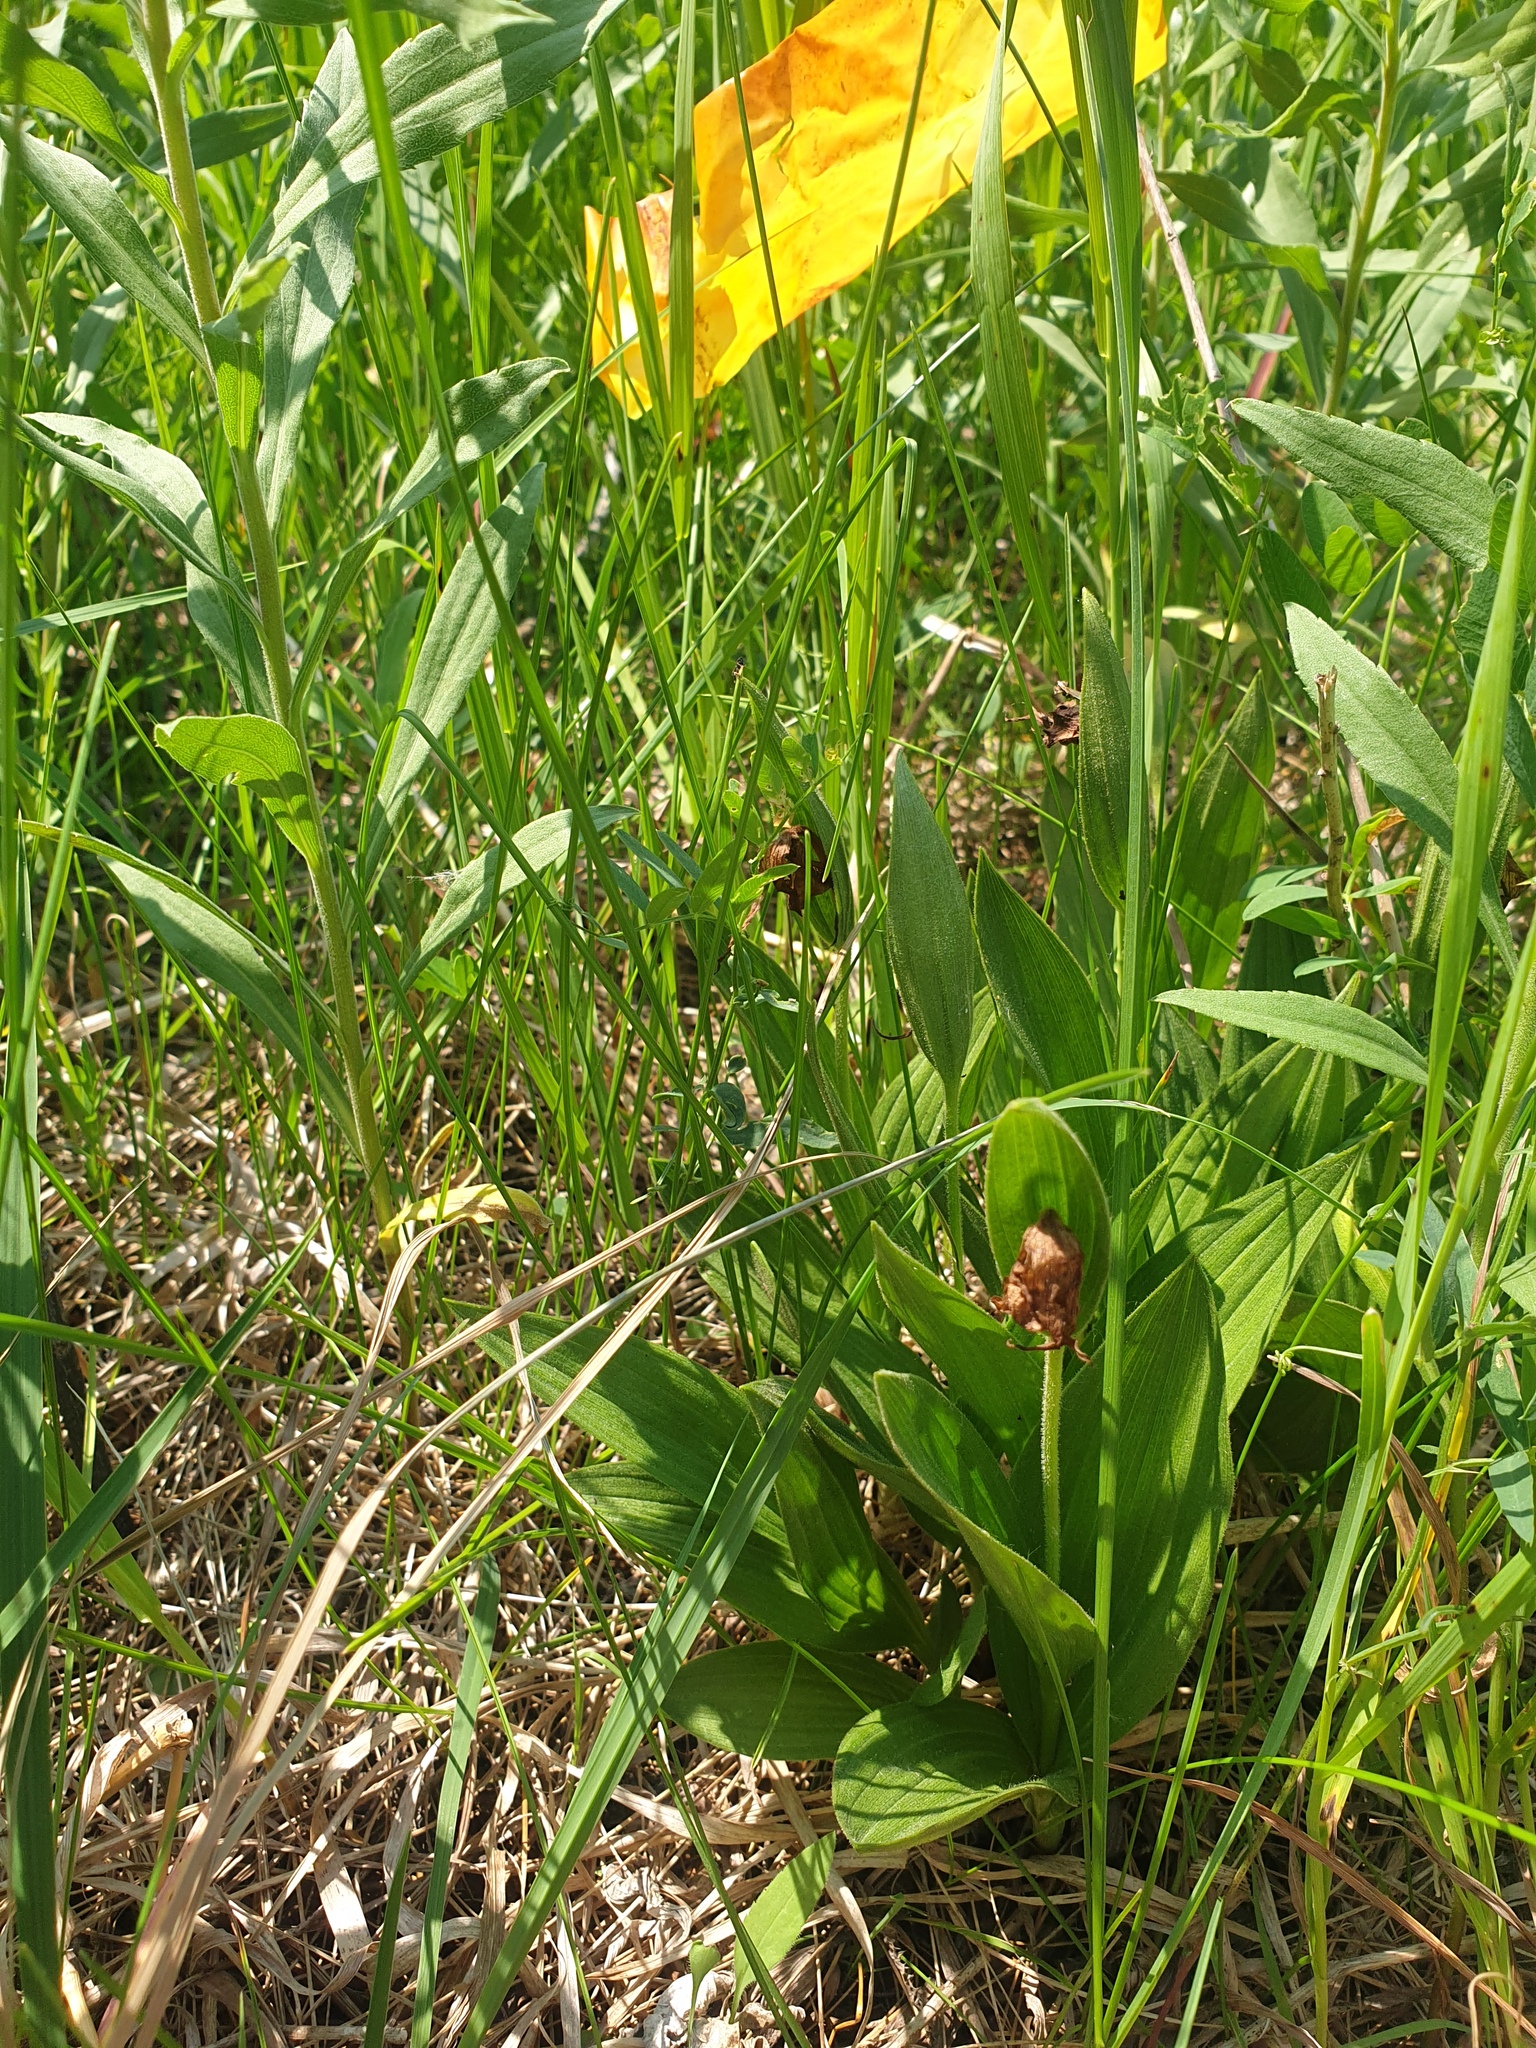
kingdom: Plantae
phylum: Tracheophyta
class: Liliopsida
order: Asparagales
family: Orchidaceae
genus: Cypripedium
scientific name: Cypripedium candidum
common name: White lady's-slipper
